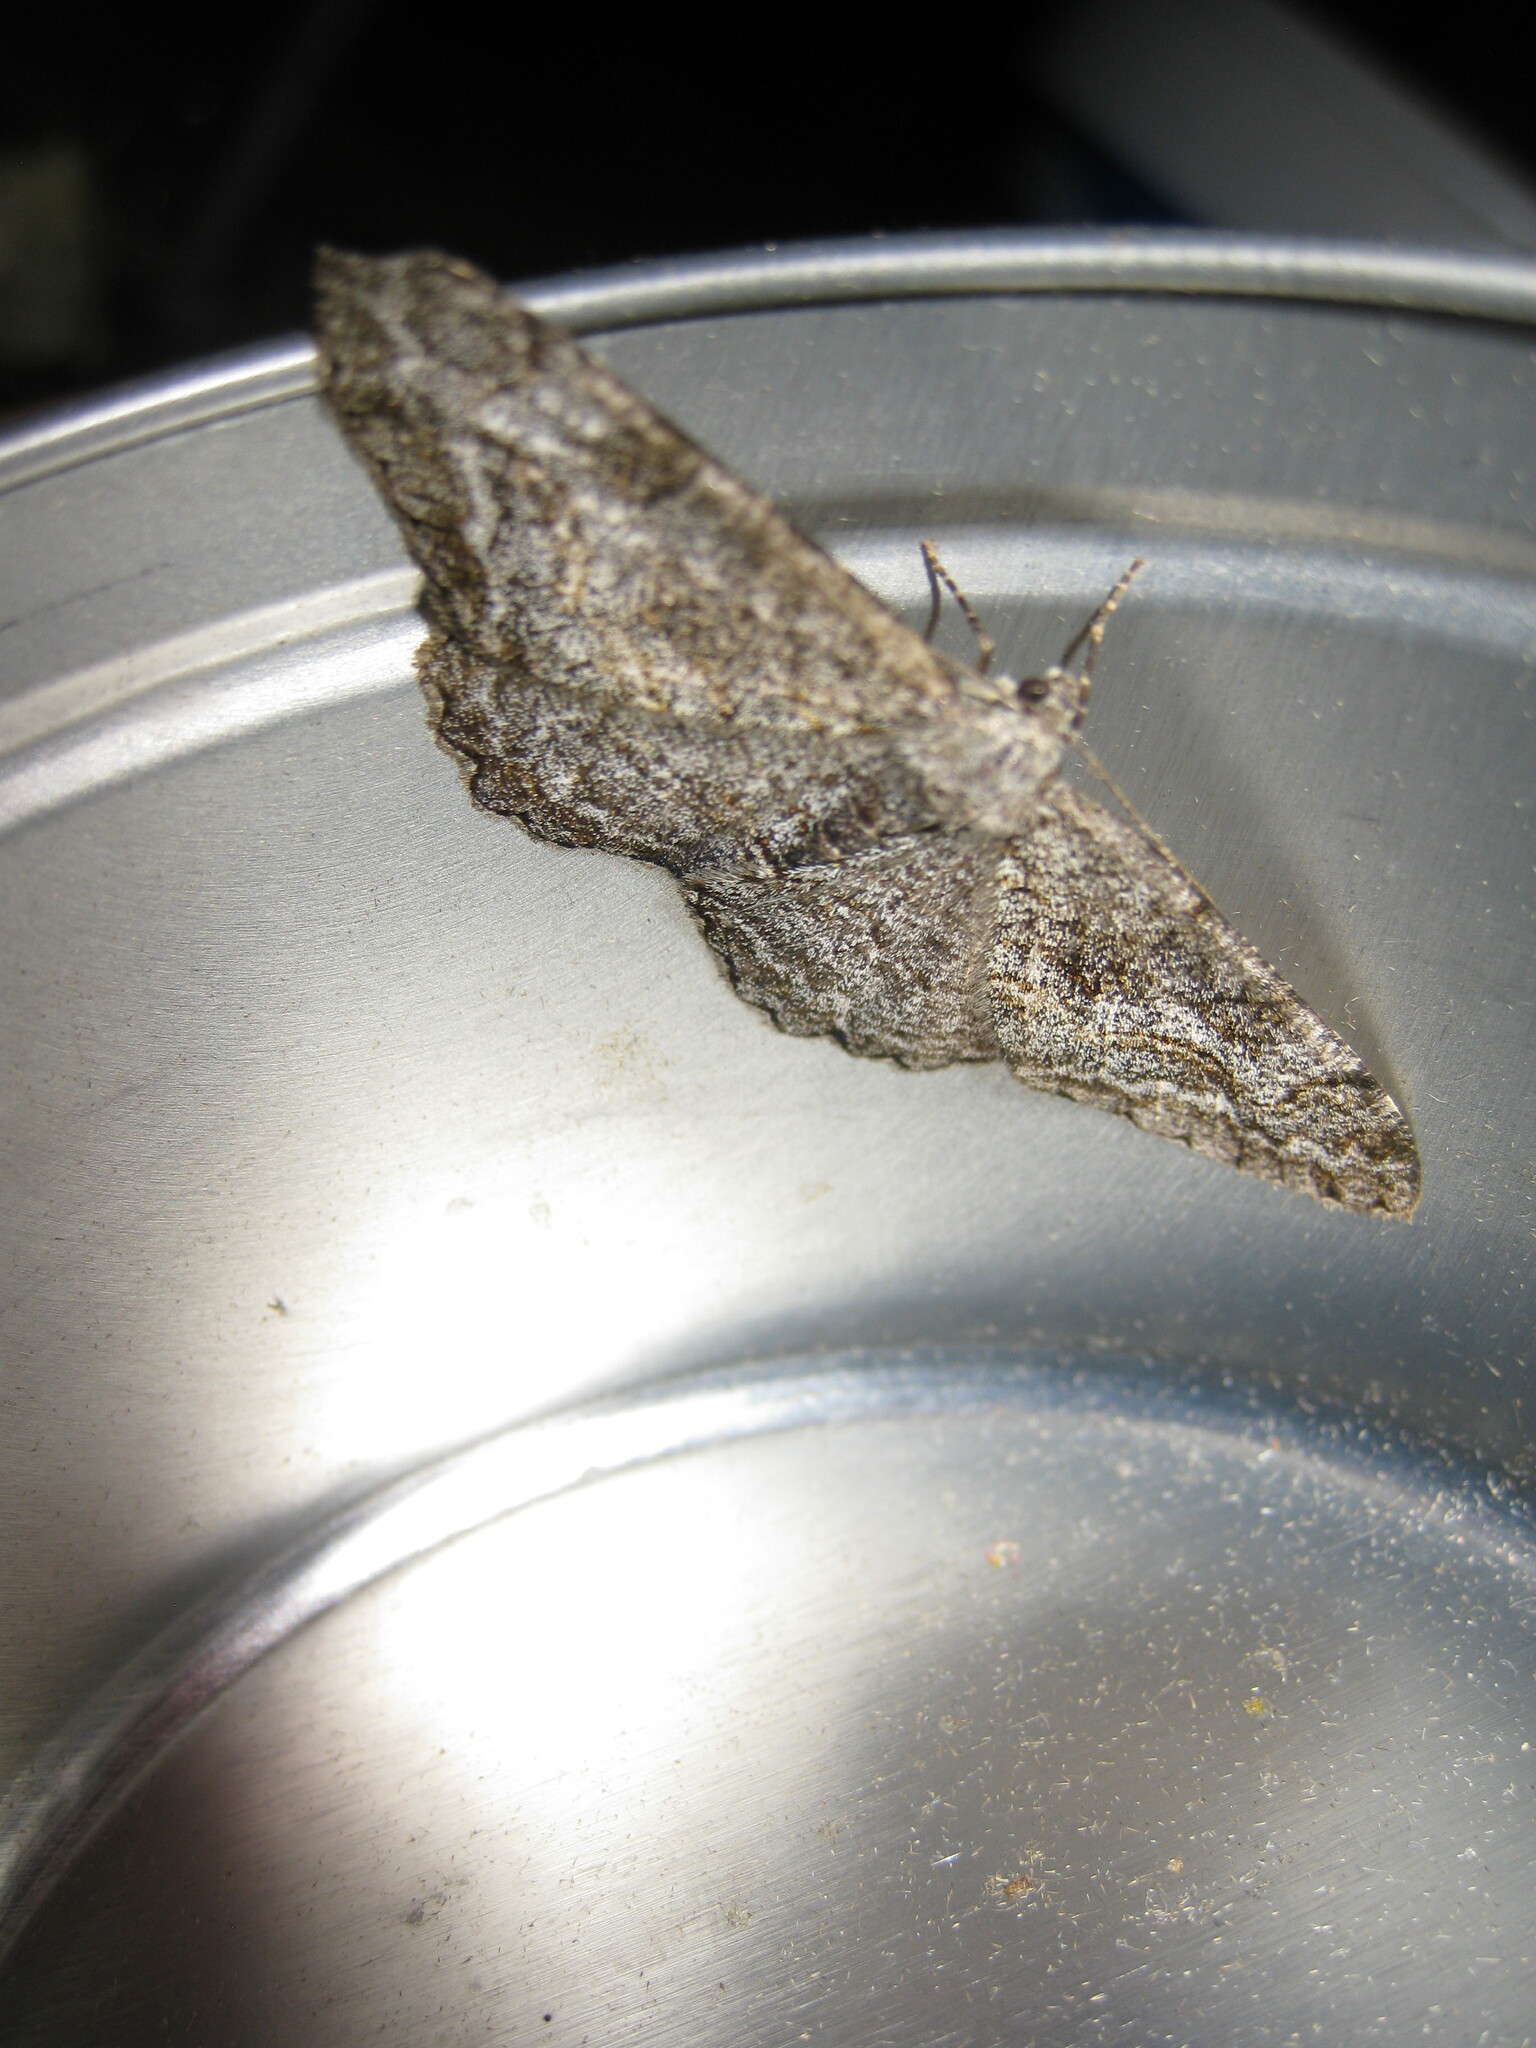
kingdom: Animalia
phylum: Arthropoda
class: Insecta
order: Lepidoptera
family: Geometridae
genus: Alcis
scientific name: Alcis repandata
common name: Mottled beauty
